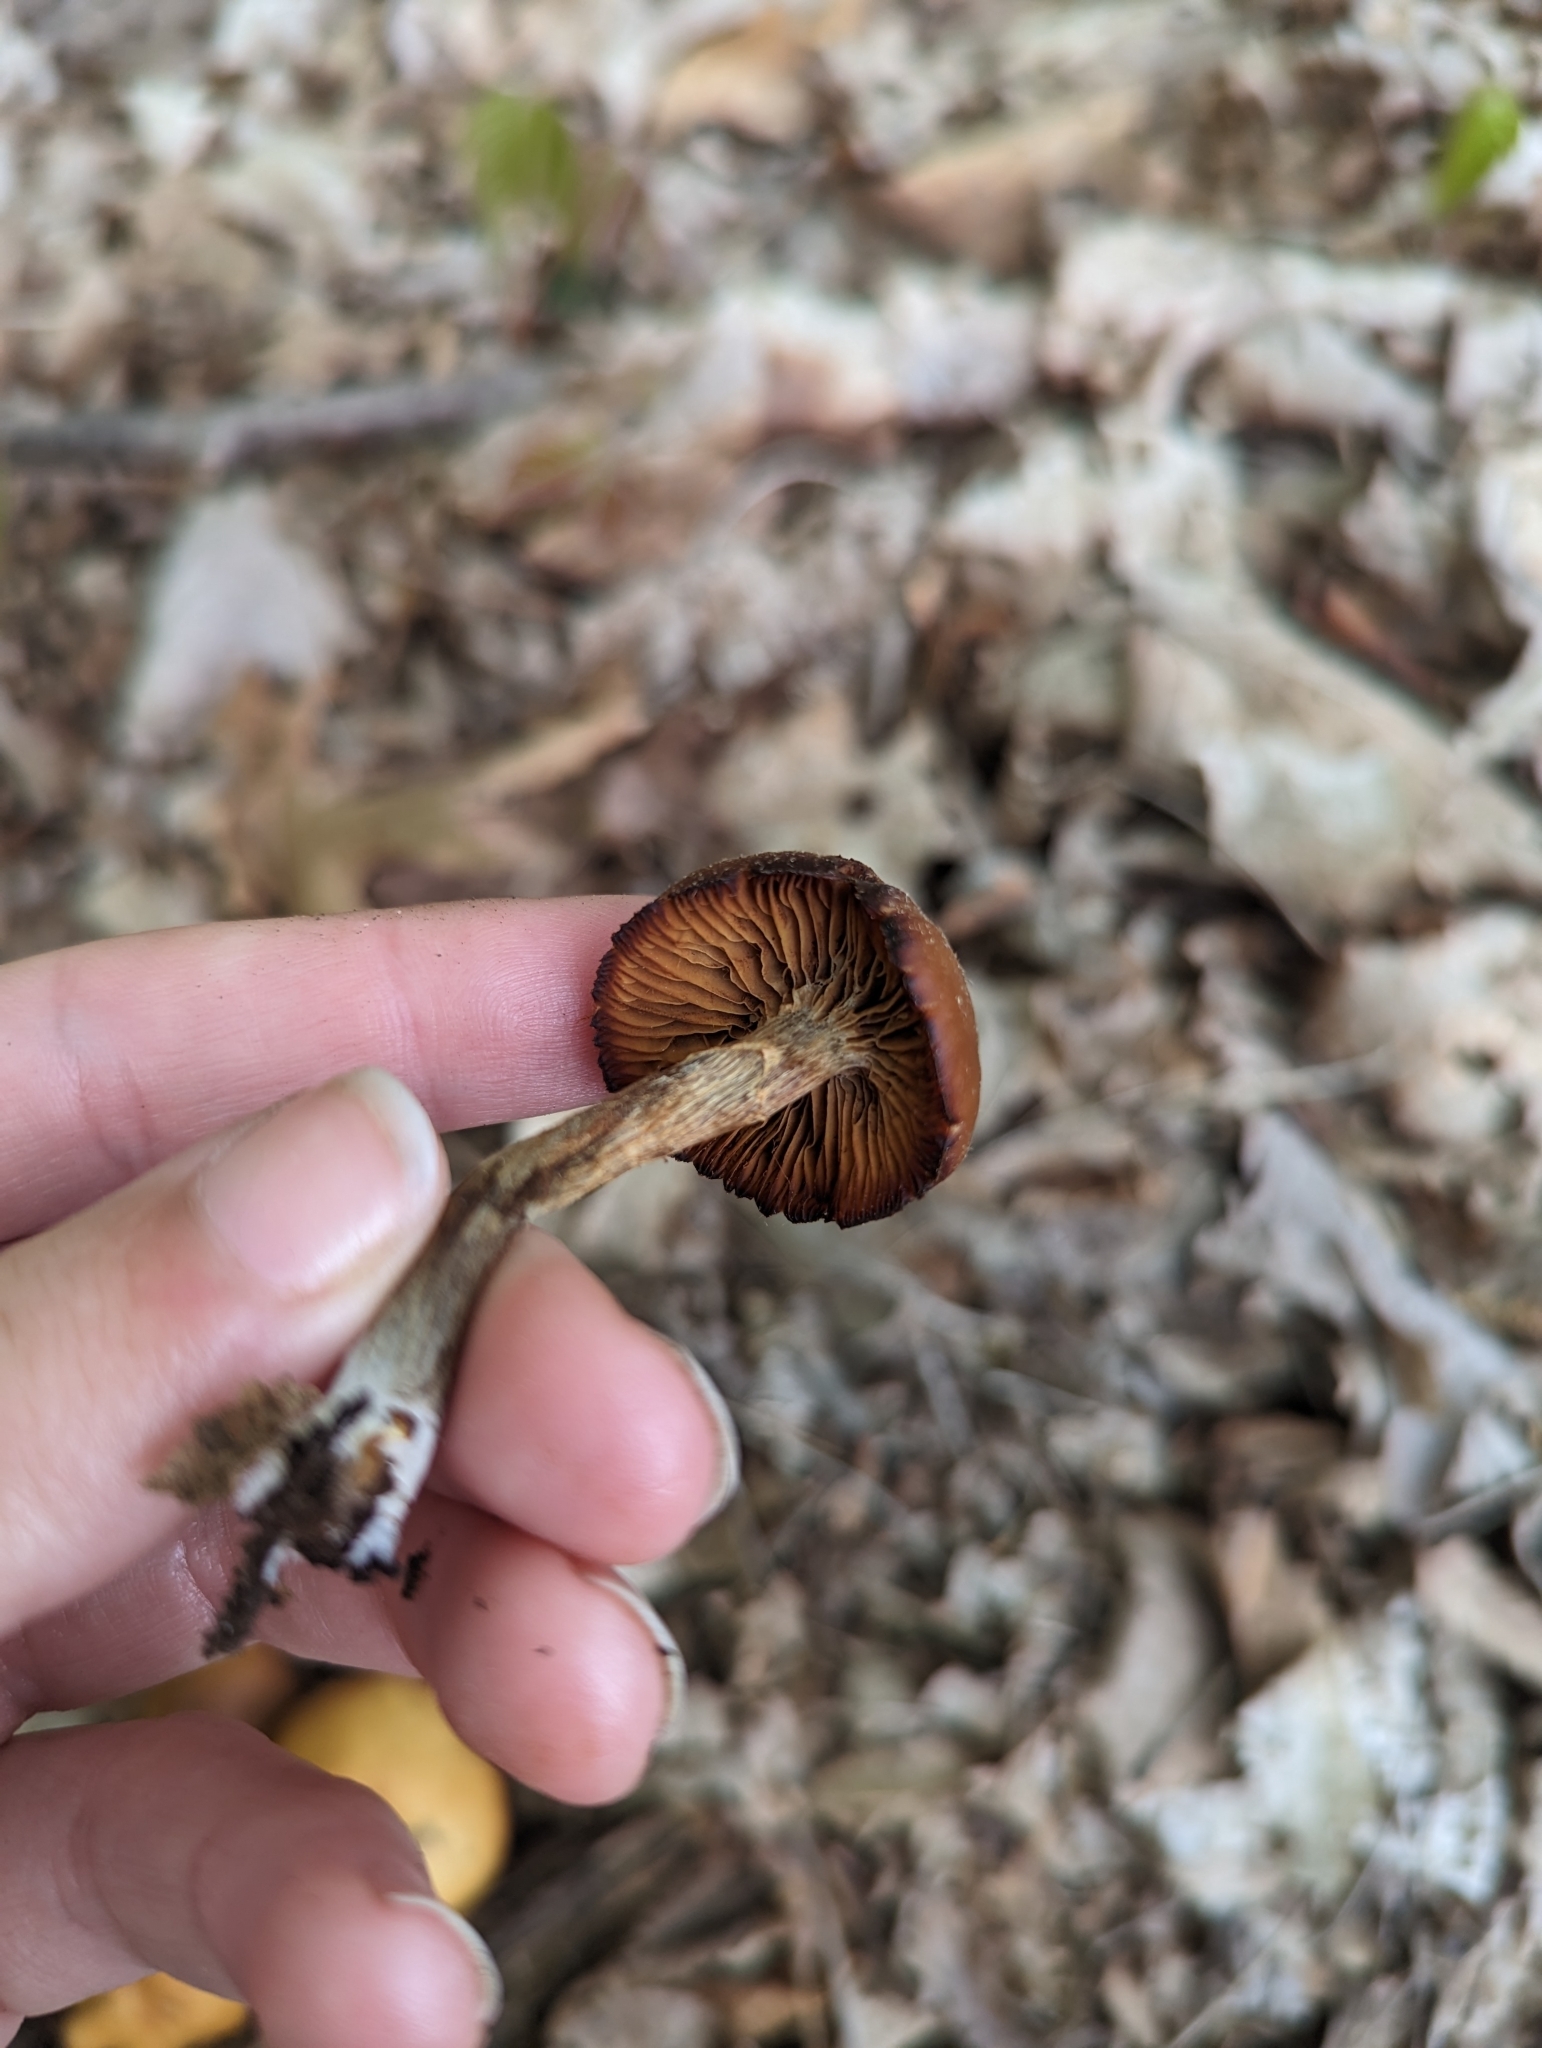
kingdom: Fungi
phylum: Basidiomycota
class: Agaricomycetes
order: Agaricales
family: Hymenogastraceae
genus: Galerina
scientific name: Galerina marginata
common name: Funeral bell
